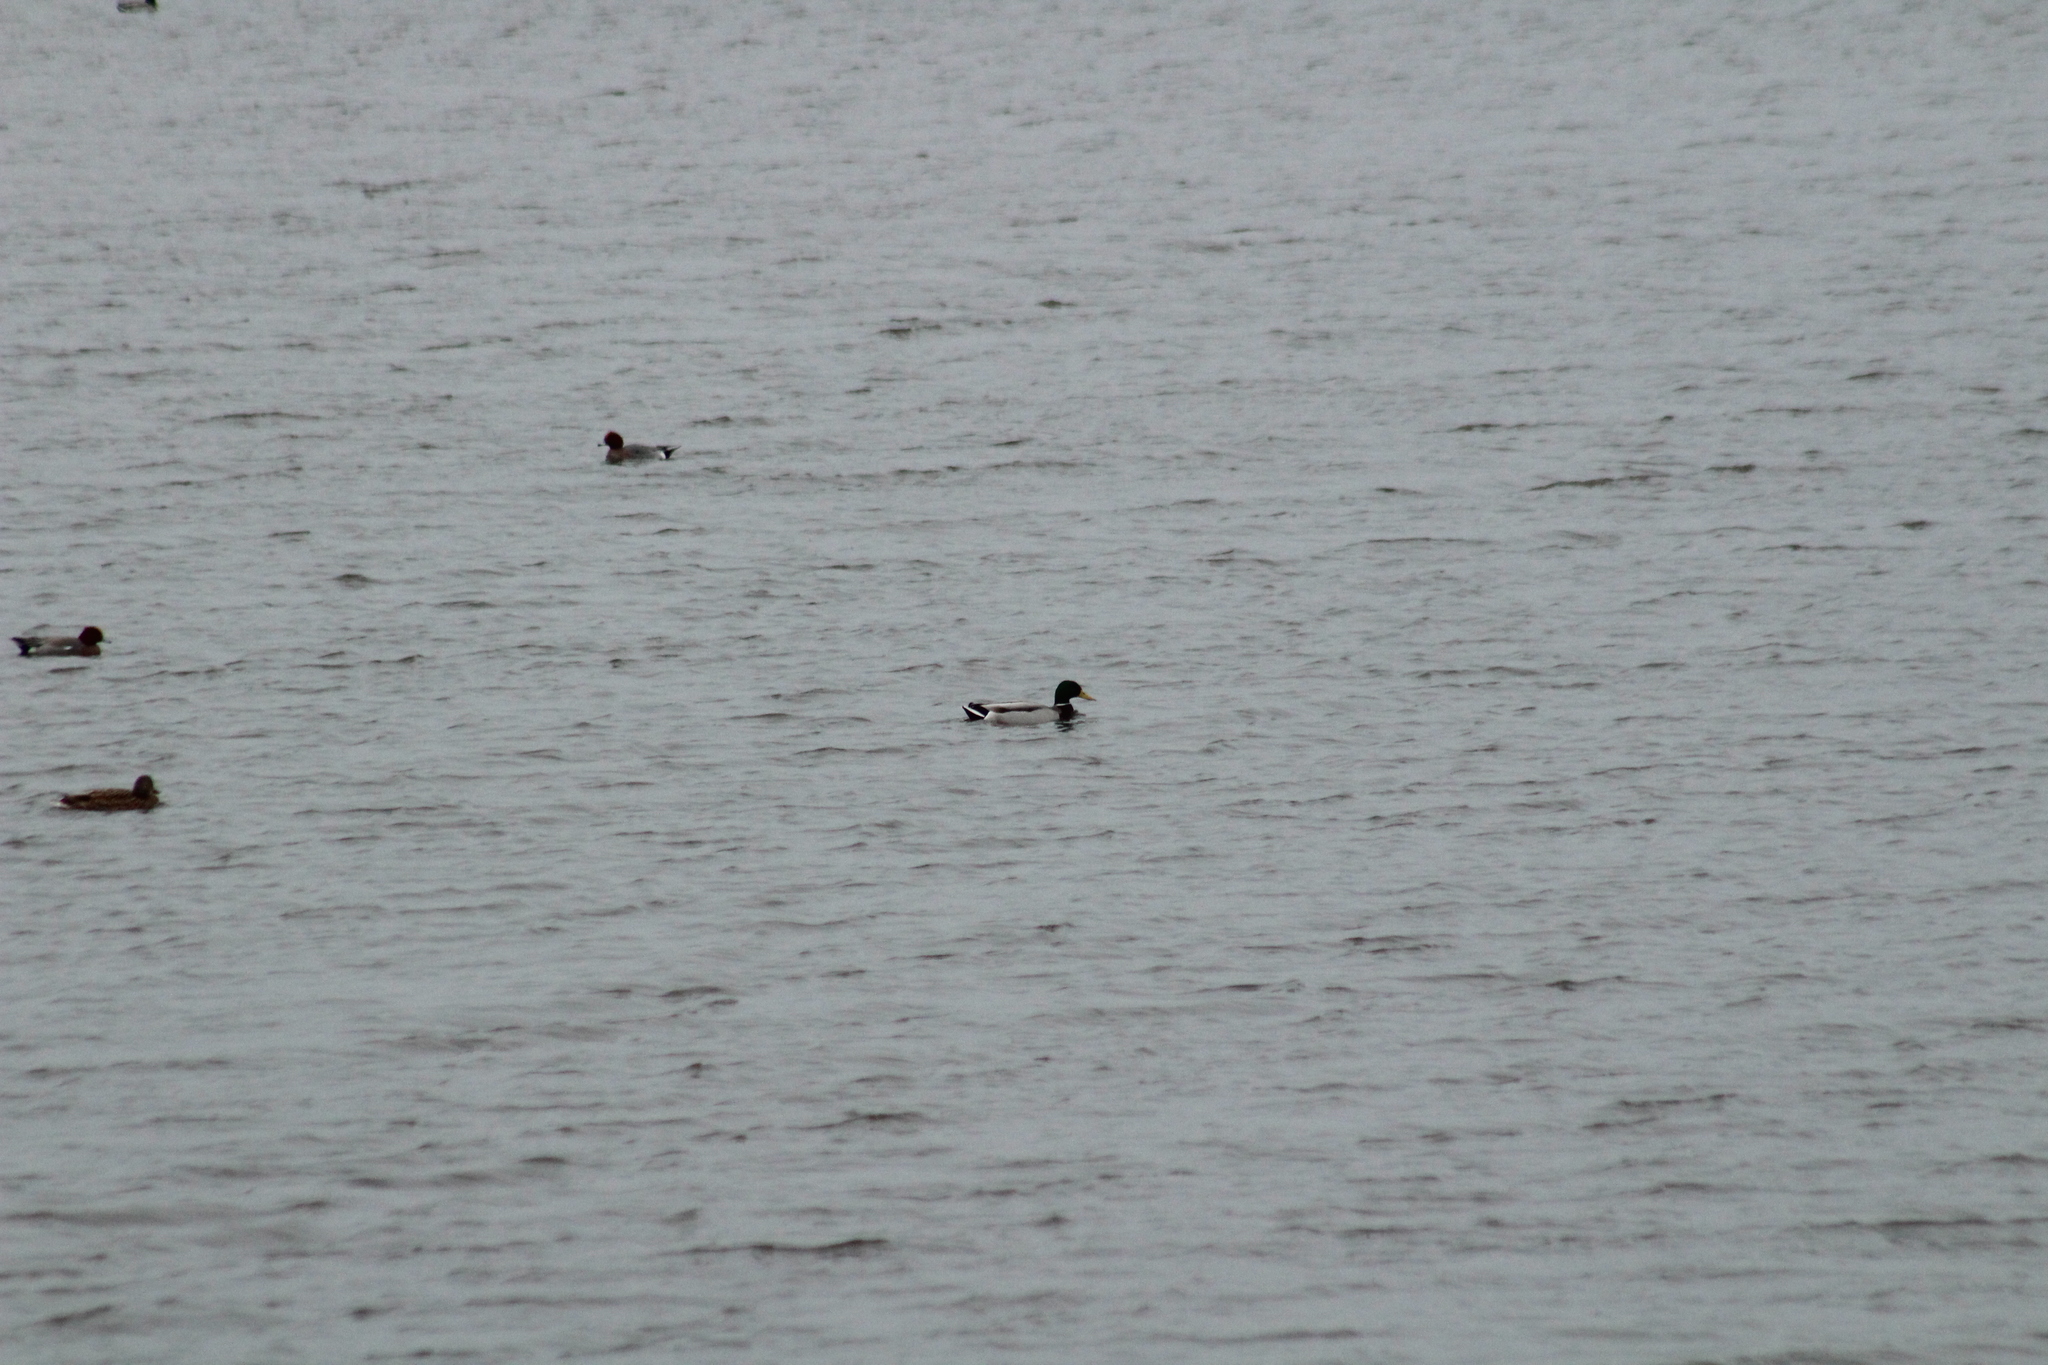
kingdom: Animalia
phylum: Chordata
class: Aves
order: Anseriformes
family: Anatidae
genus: Anas
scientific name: Anas platyrhynchos
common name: Mallard
